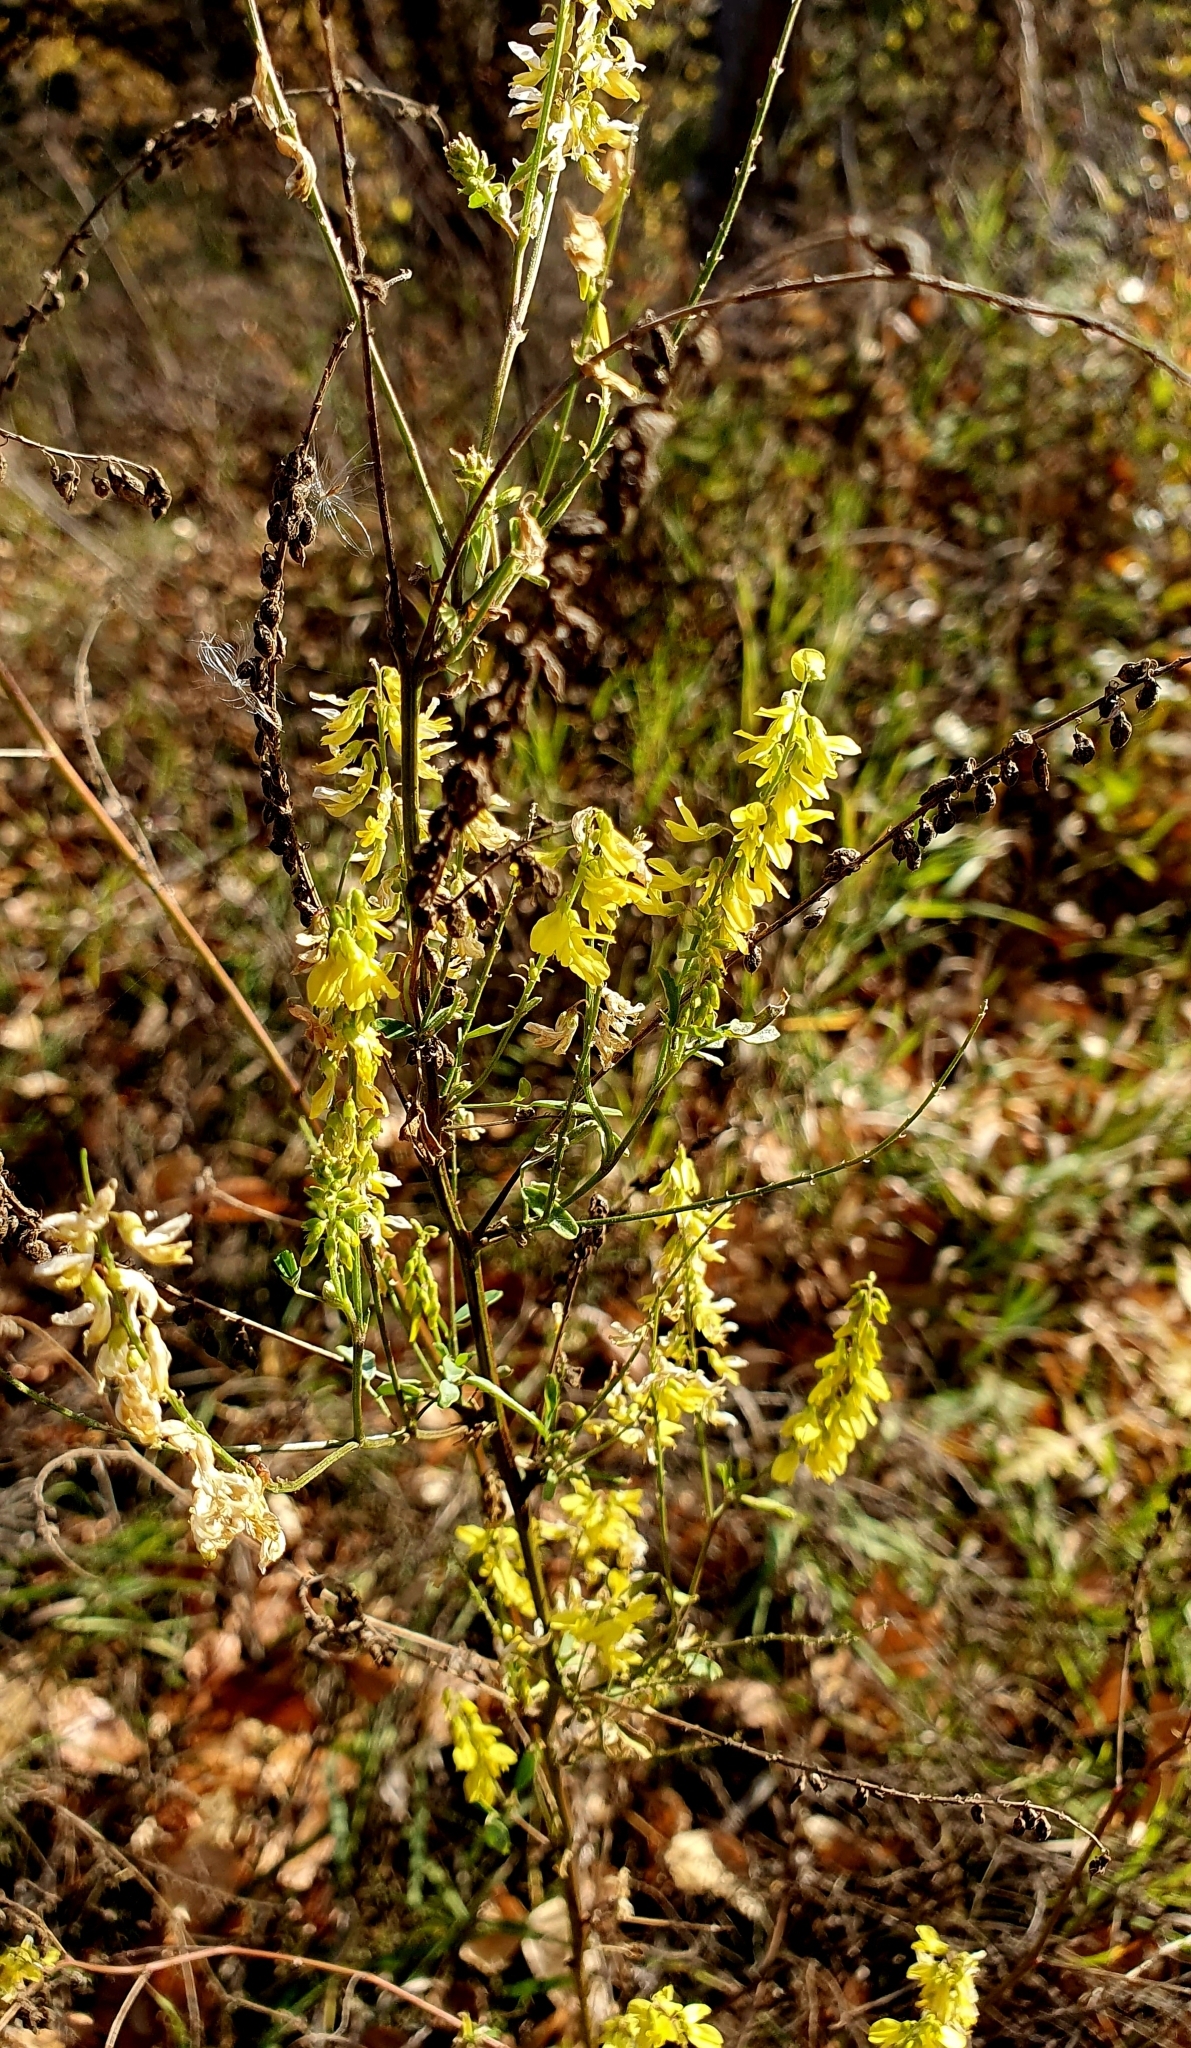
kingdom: Plantae
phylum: Tracheophyta
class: Magnoliopsida
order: Fabales
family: Fabaceae
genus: Melilotus
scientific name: Melilotus officinalis
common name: Sweetclover
